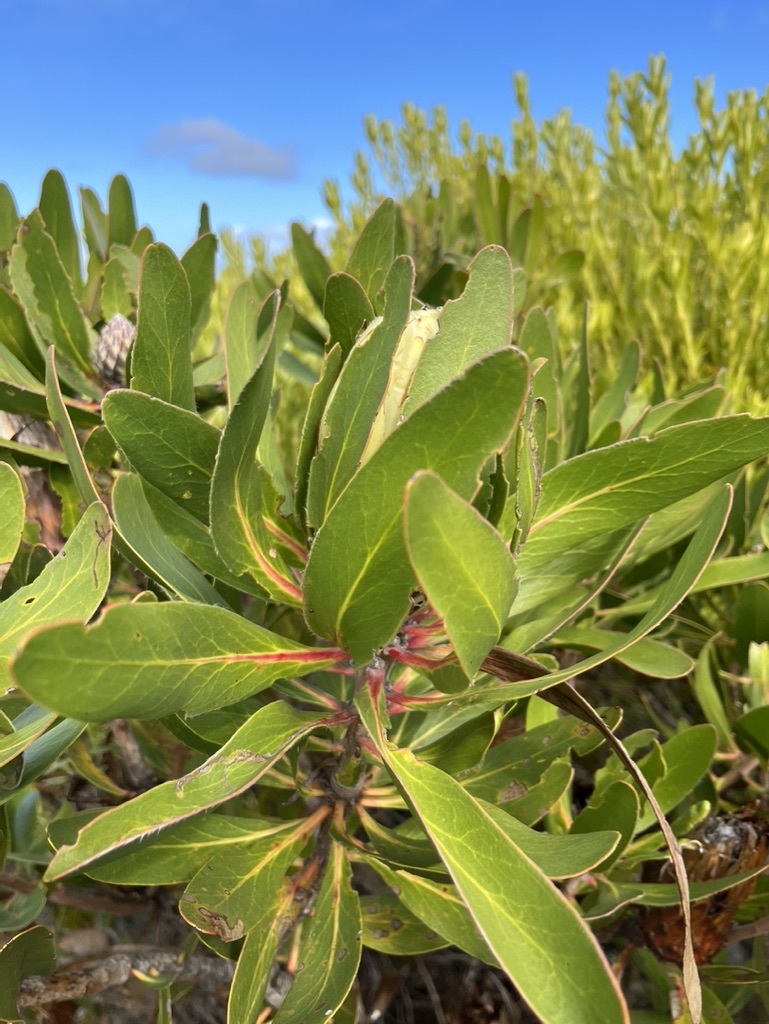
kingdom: Plantae
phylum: Tracheophyta
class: Magnoliopsida
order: Proteales
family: Proteaceae
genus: Protea
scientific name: Protea obtusifolia
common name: Bredasdorp sugarbush
